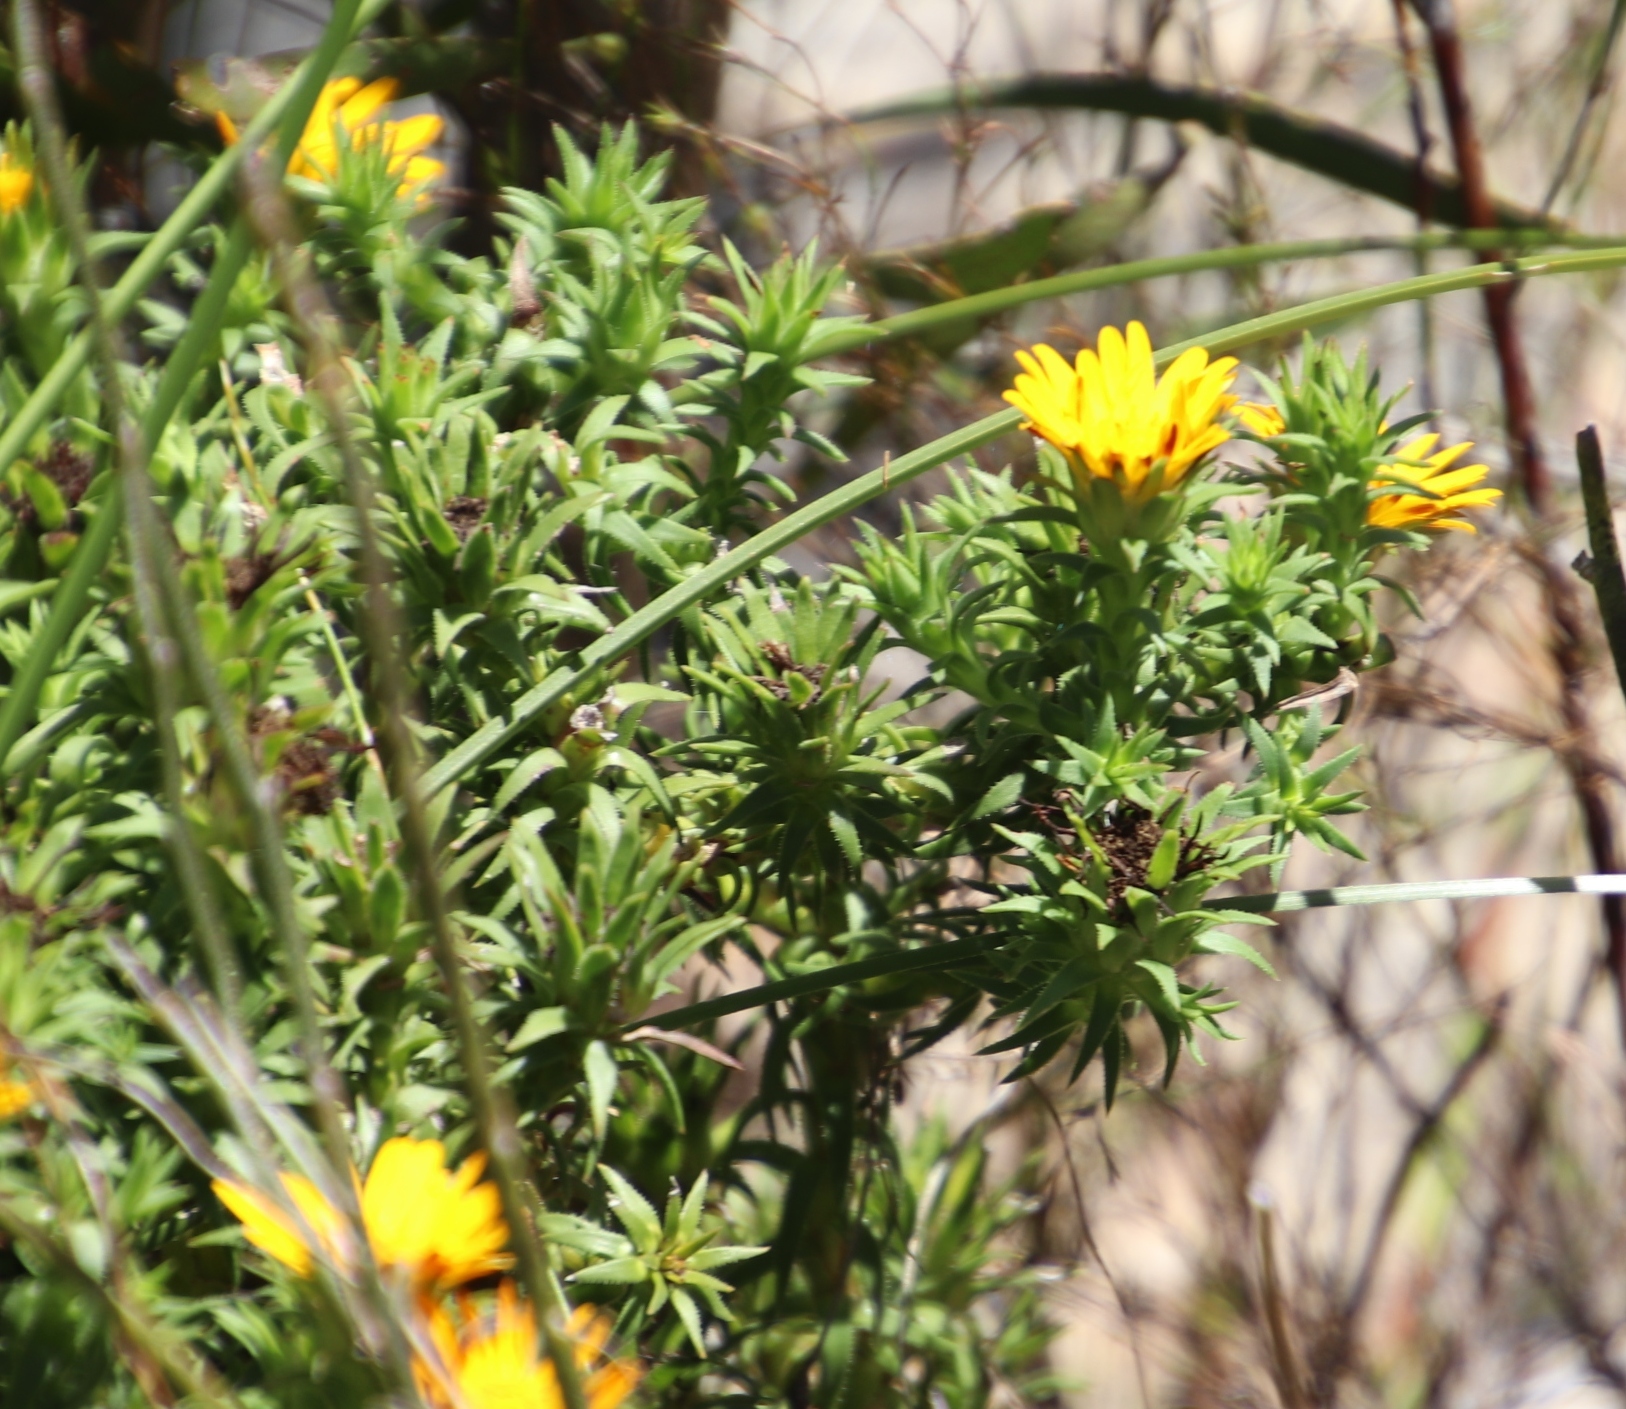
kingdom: Plantae
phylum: Tracheophyta
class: Magnoliopsida
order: Asterales
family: Asteraceae
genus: Oedera
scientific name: Oedera capensis
